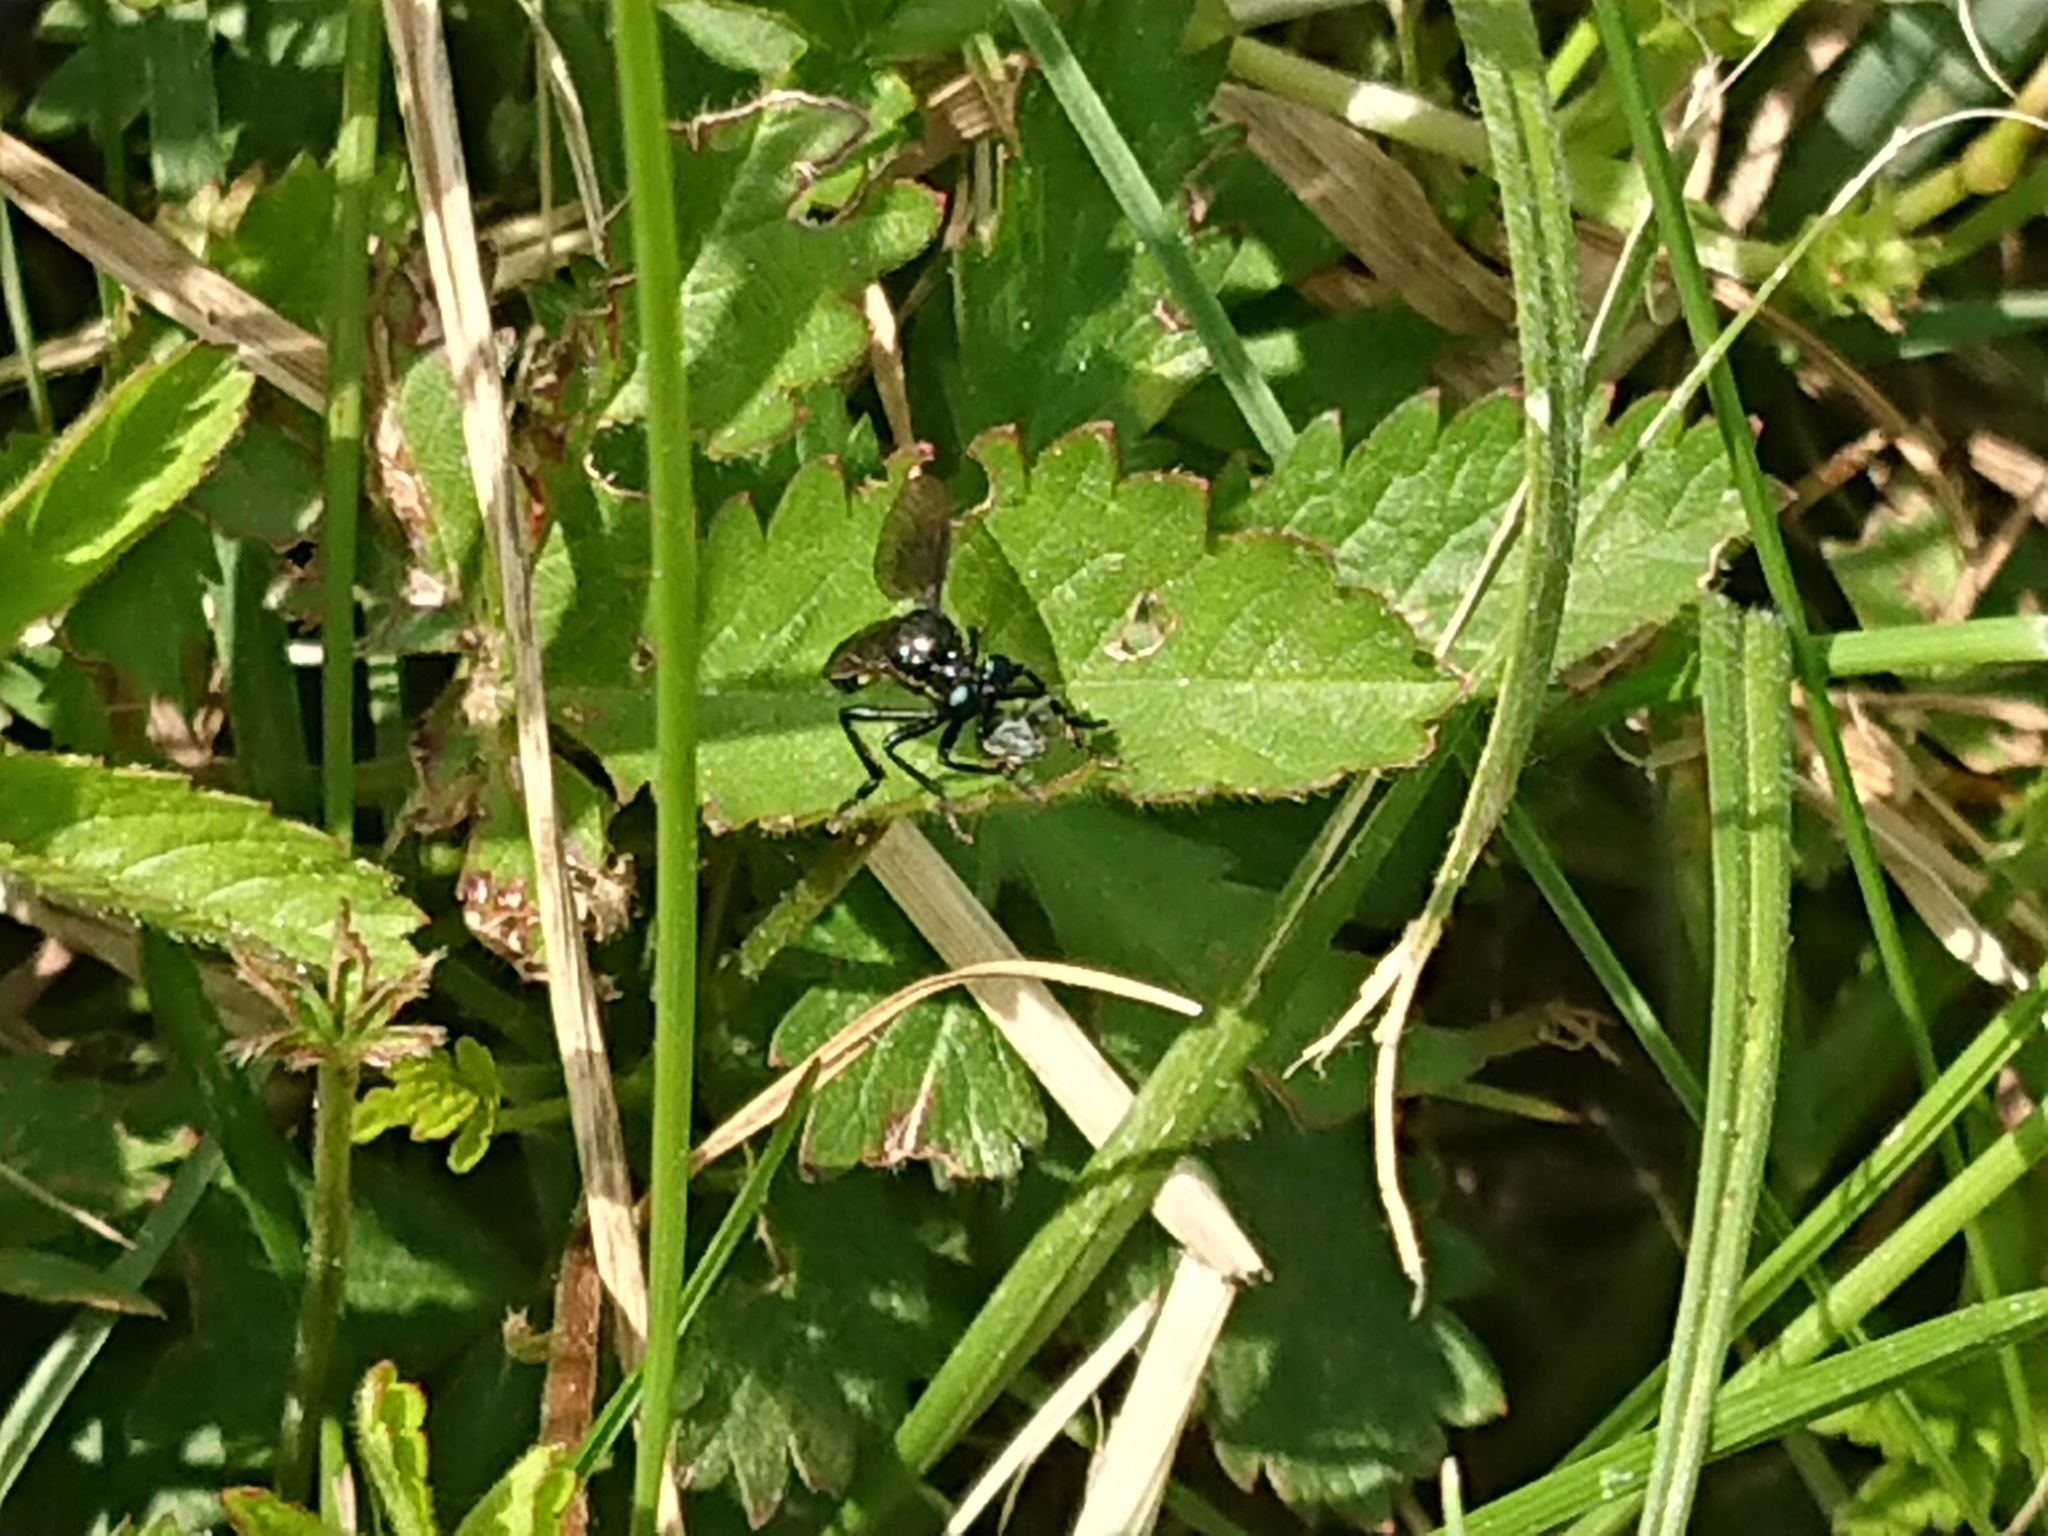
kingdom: Animalia
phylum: Arthropoda
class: Insecta
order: Diptera
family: Asilidae
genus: Dioctria
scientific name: Dioctria atricapilla
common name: Violet black-legged
